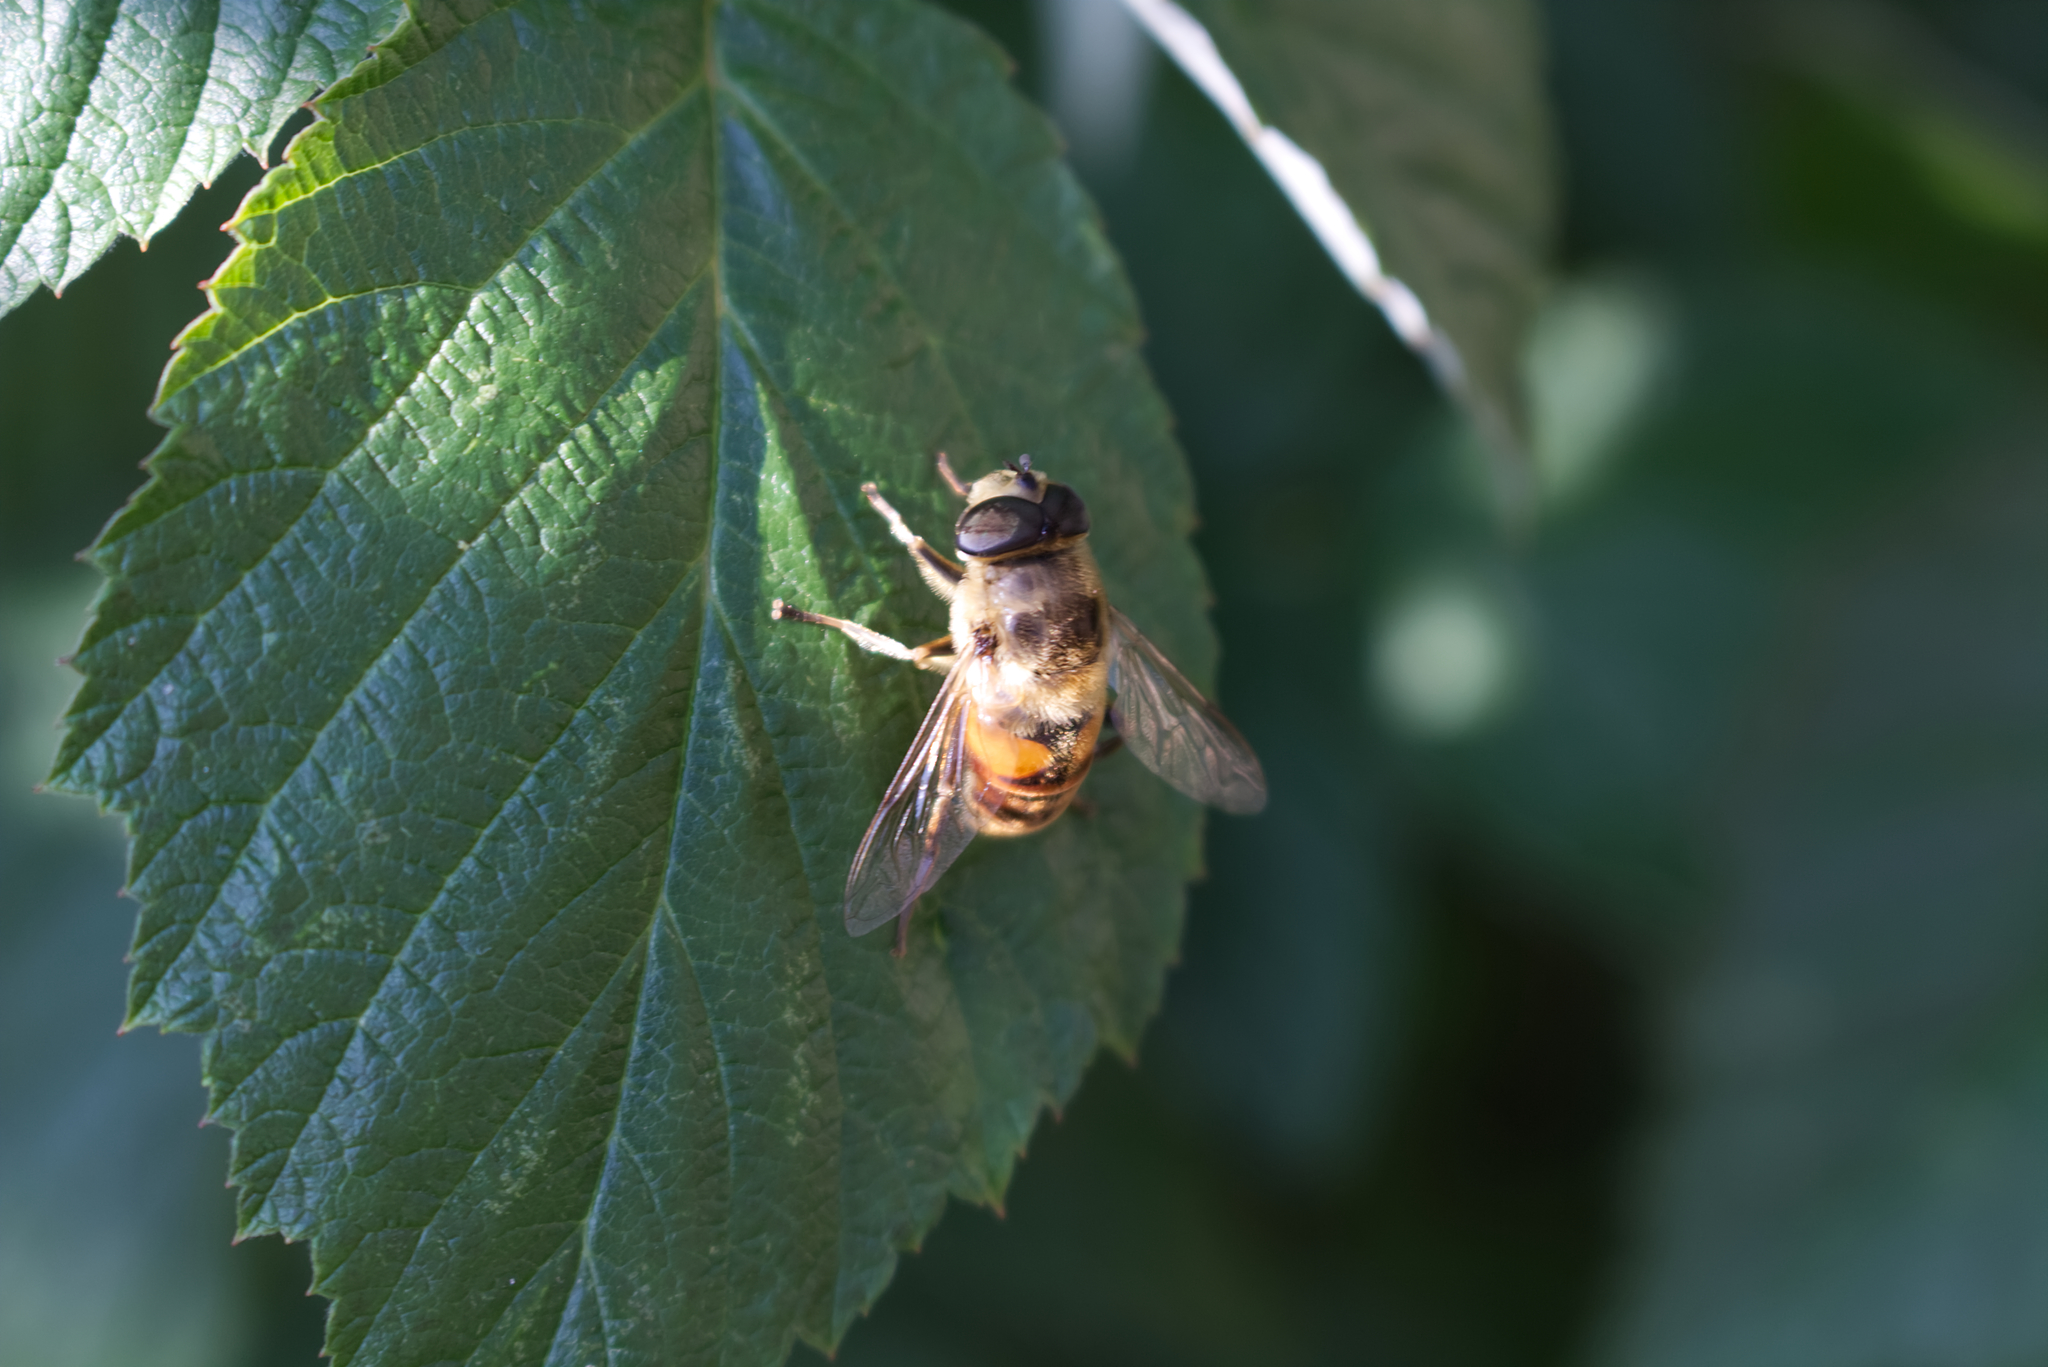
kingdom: Animalia
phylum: Arthropoda
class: Insecta
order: Diptera
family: Syrphidae
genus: Eristalis
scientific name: Eristalis tenax
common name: Drone fly
